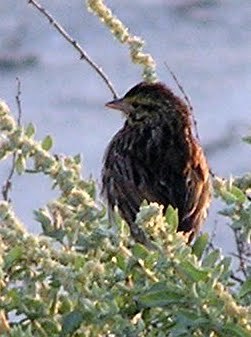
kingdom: Animalia
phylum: Chordata
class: Aves
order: Passeriformes
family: Passerellidae
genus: Passerculus
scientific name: Passerculus sandwichensis
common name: Savannah sparrow
